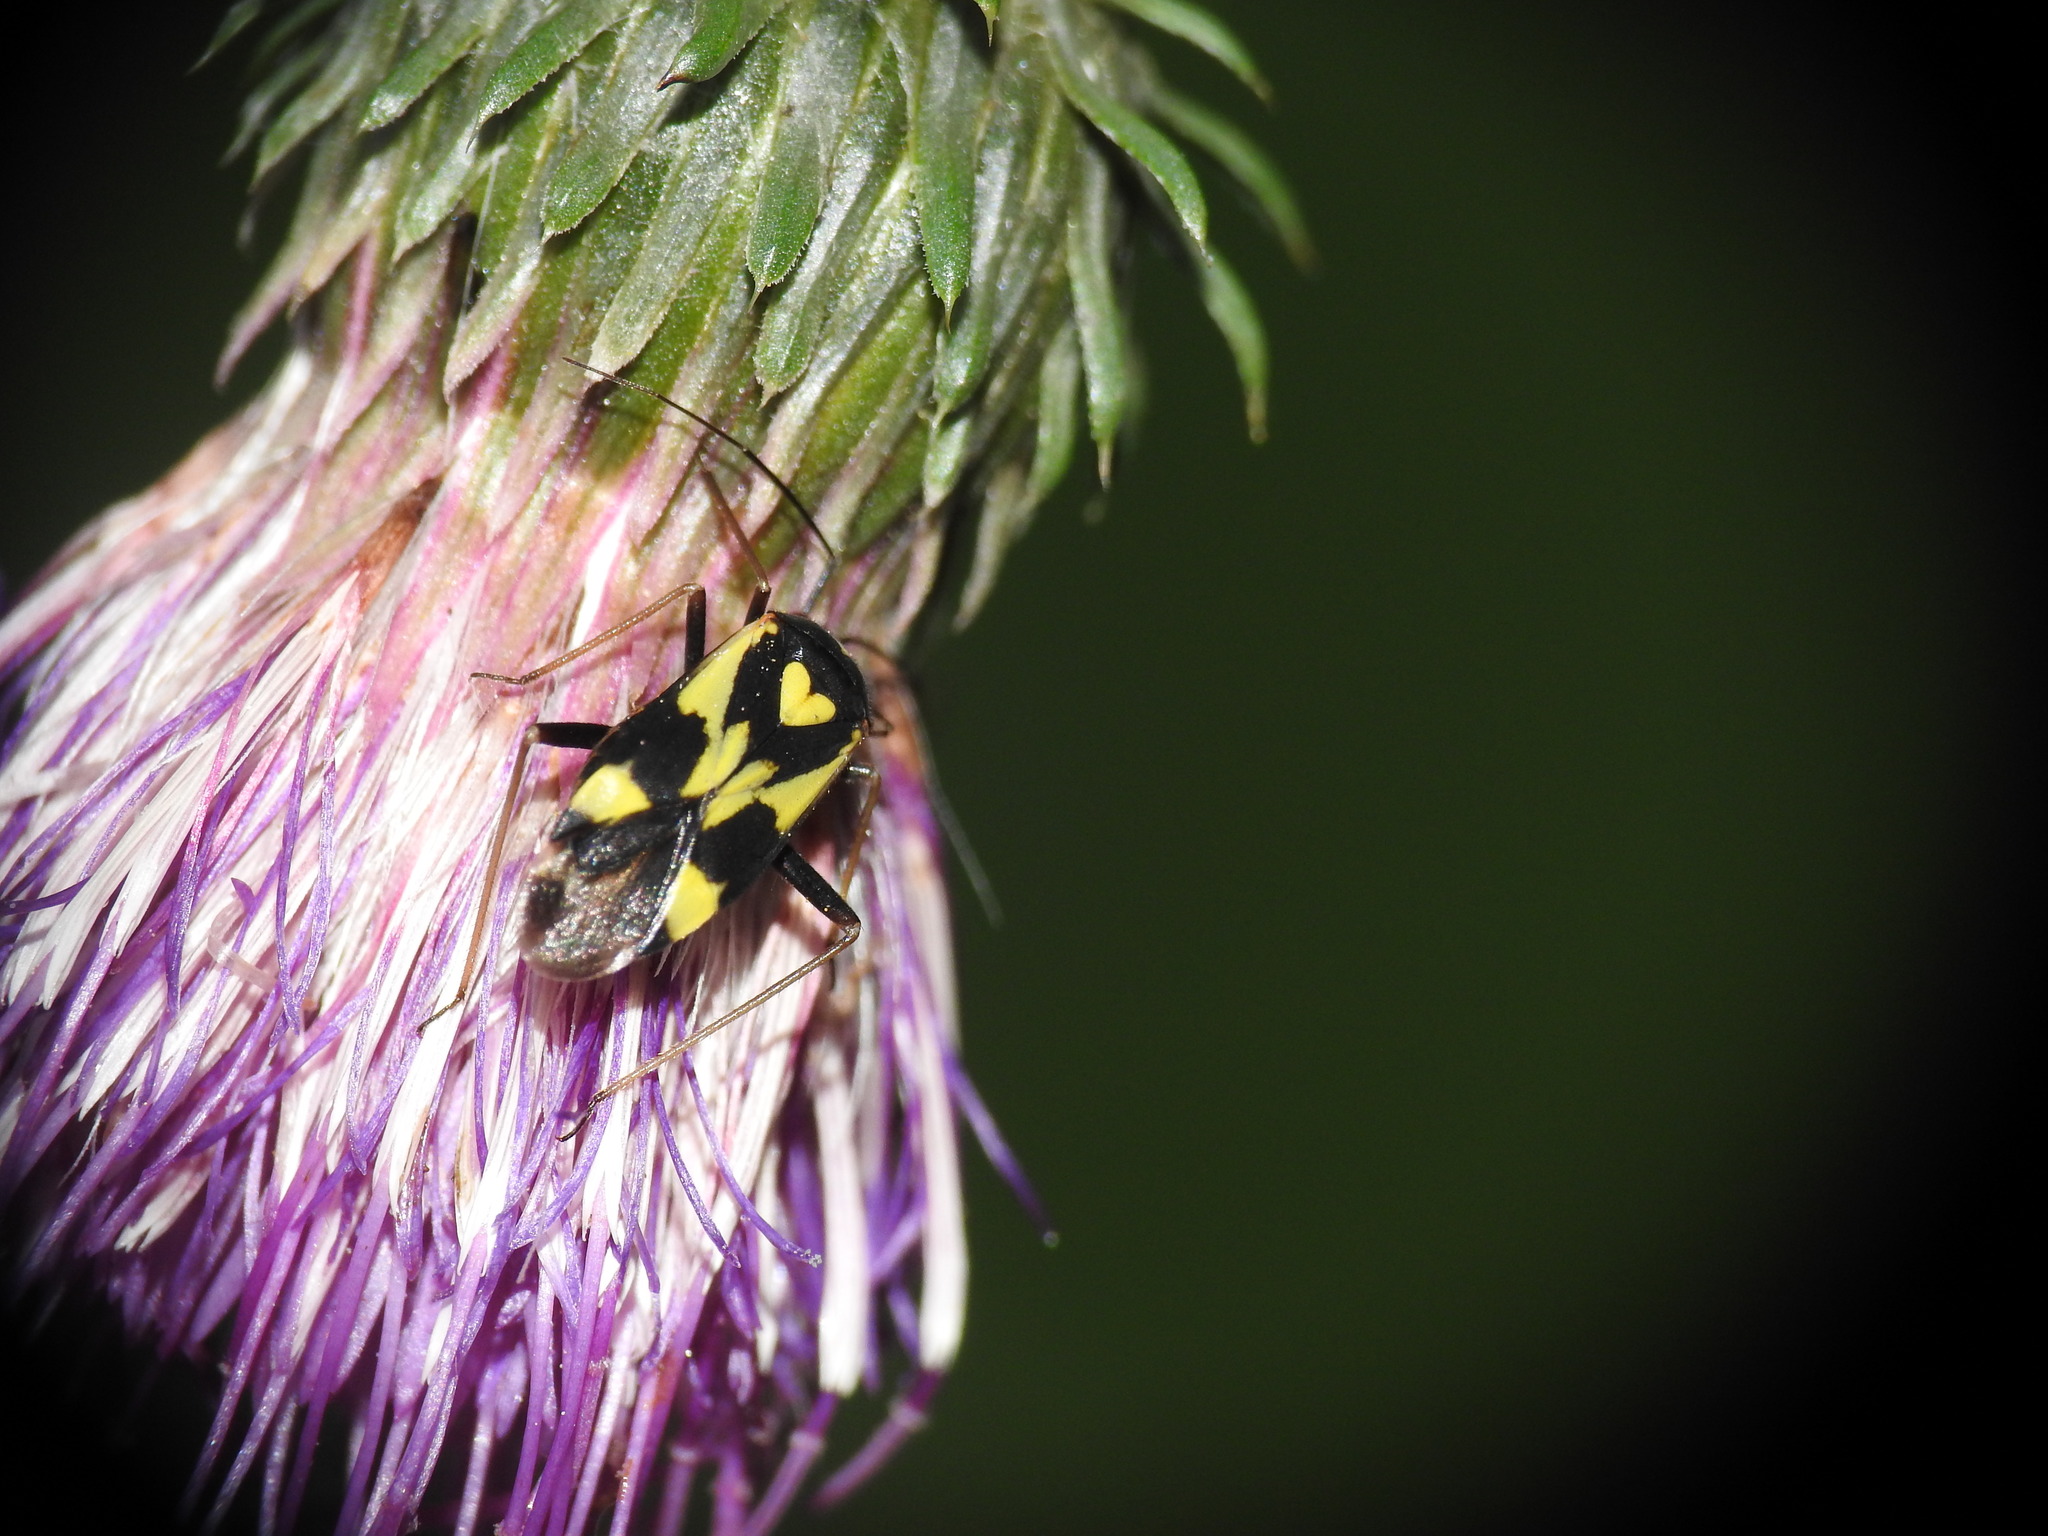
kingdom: Animalia
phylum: Arthropoda
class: Insecta
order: Hemiptera
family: Miridae
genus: Grypocoris
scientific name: Grypocoris sexguttatus
